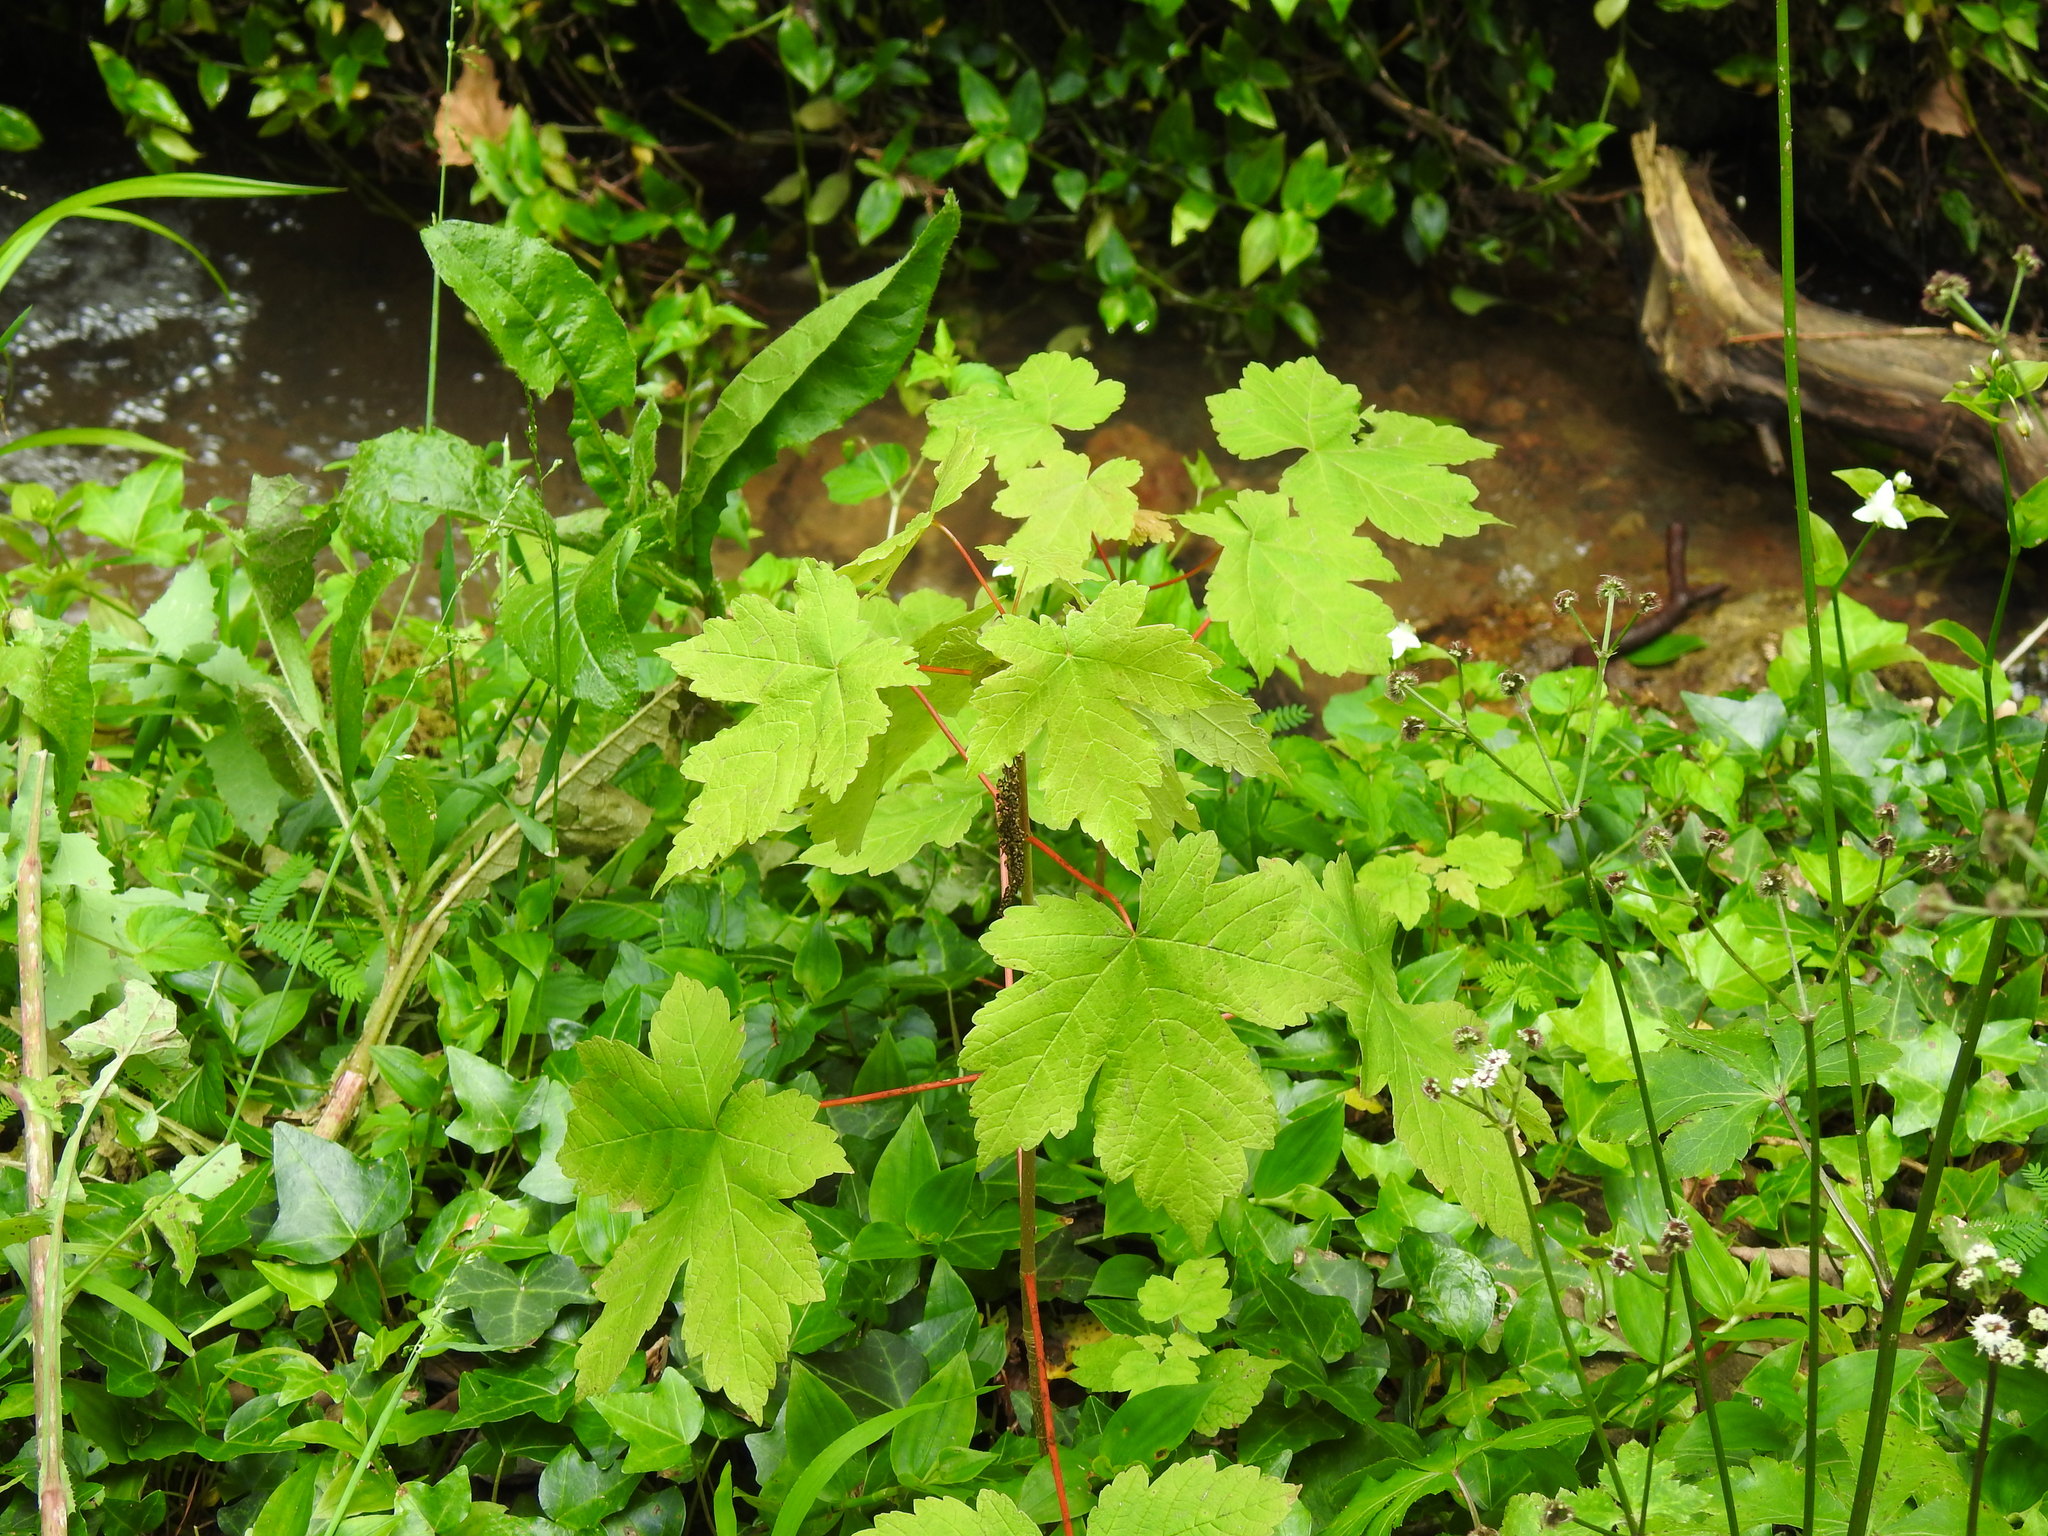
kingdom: Plantae
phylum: Tracheophyta
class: Magnoliopsida
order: Sapindales
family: Sapindaceae
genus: Acer
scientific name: Acer pseudoplatanus
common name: Sycamore
